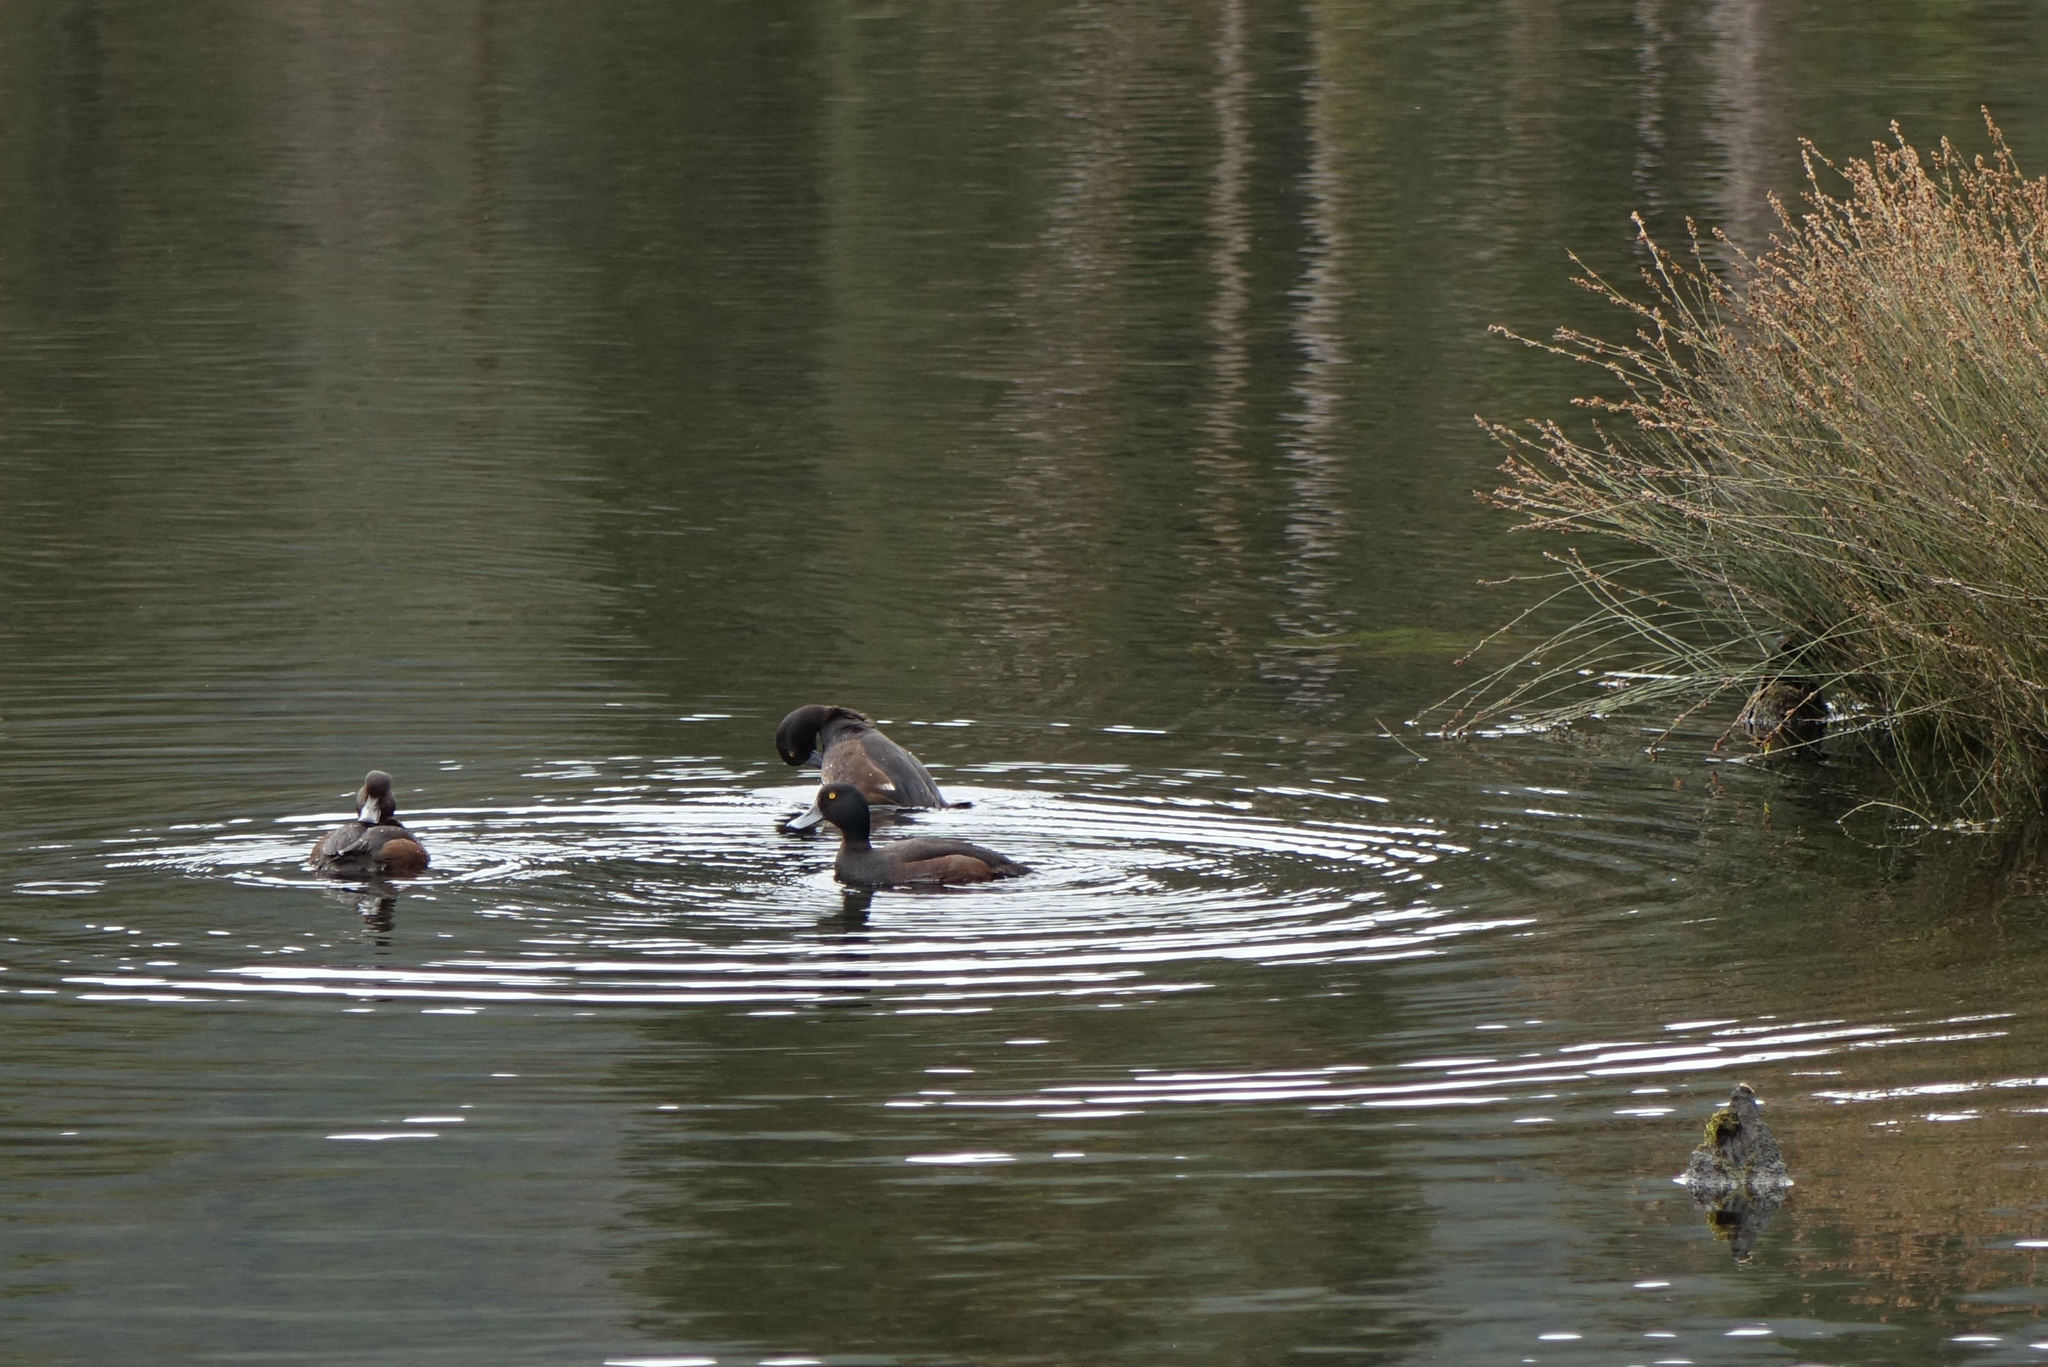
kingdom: Animalia
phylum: Chordata
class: Aves
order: Anseriformes
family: Anatidae
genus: Aythya
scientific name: Aythya novaeseelandiae
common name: New zealand scaup
